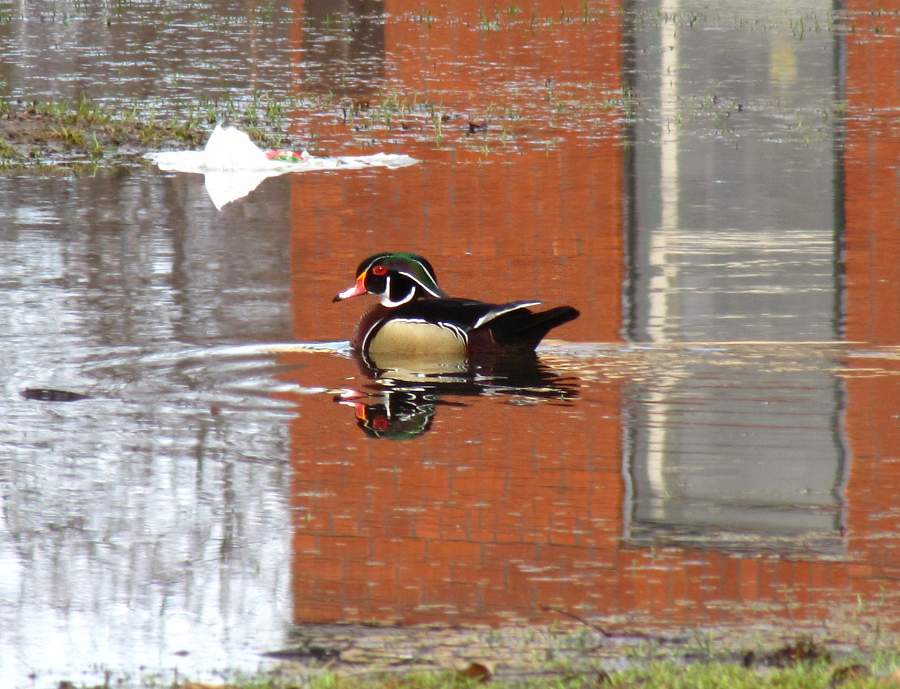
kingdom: Animalia
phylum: Chordata
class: Aves
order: Anseriformes
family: Anatidae
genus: Aix
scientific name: Aix sponsa
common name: Wood duck
